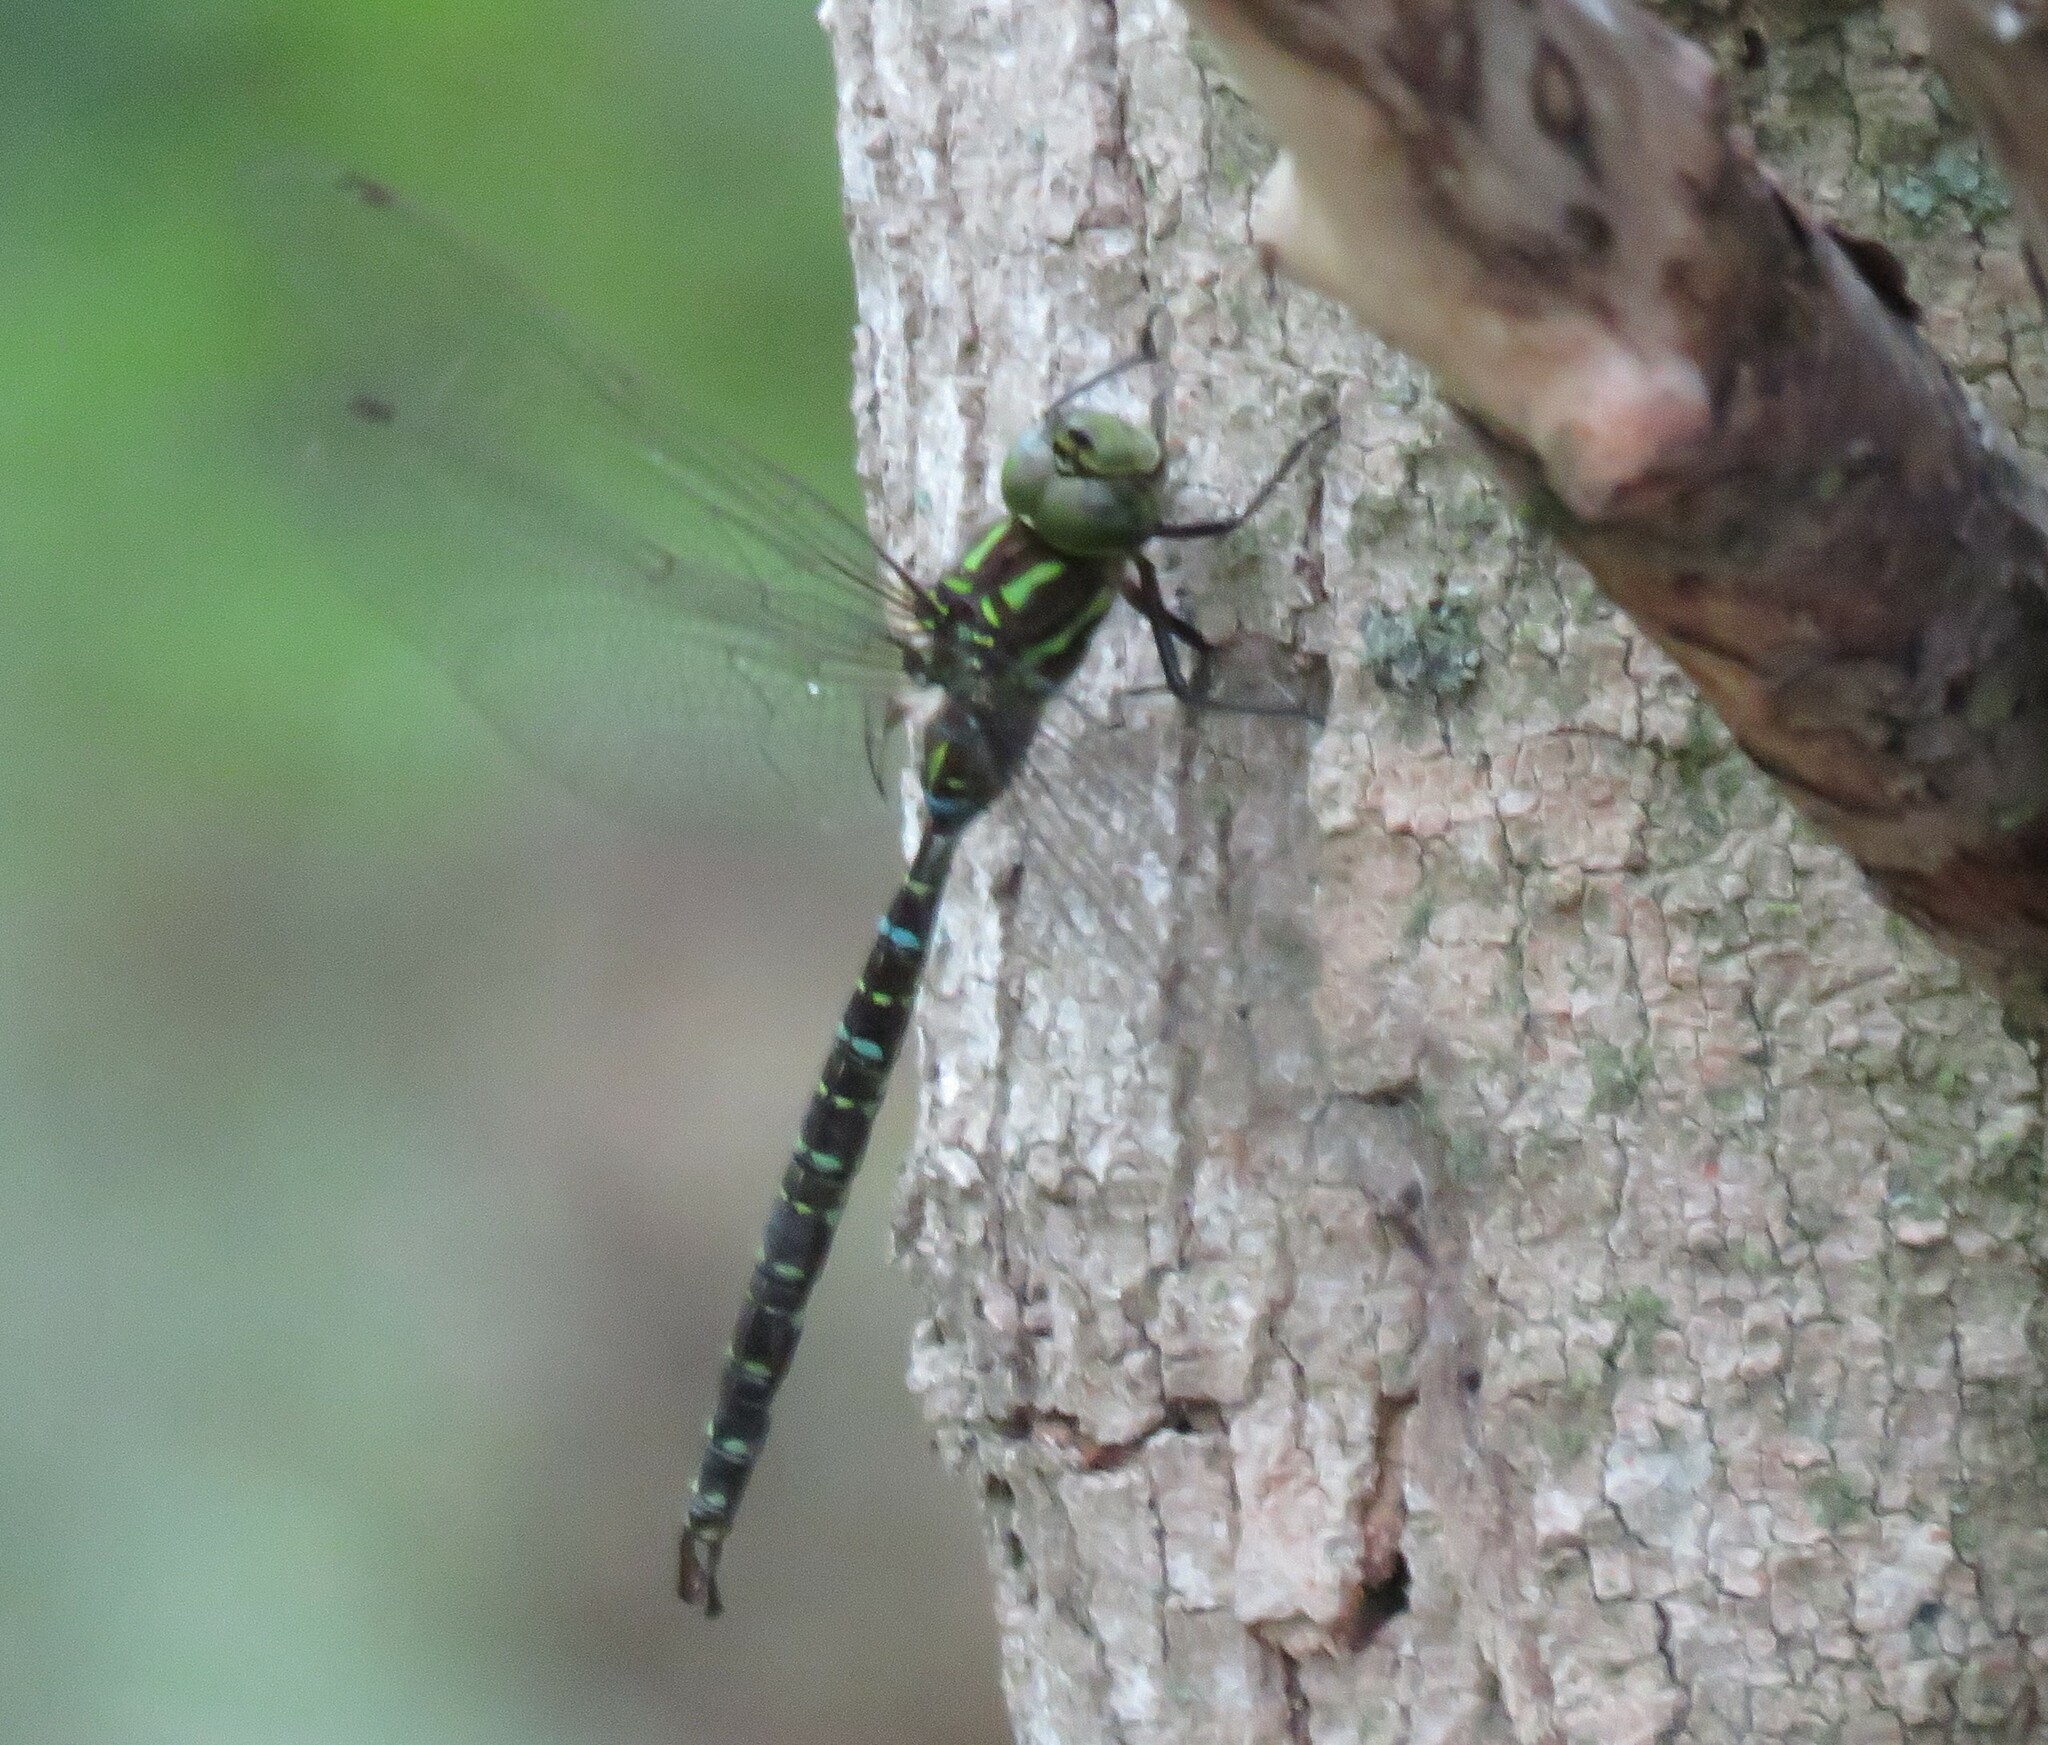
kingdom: Animalia
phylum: Arthropoda
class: Insecta
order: Odonata
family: Aeshnidae
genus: Aeshna
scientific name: Aeshna umbrosa
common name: Shadow darner
